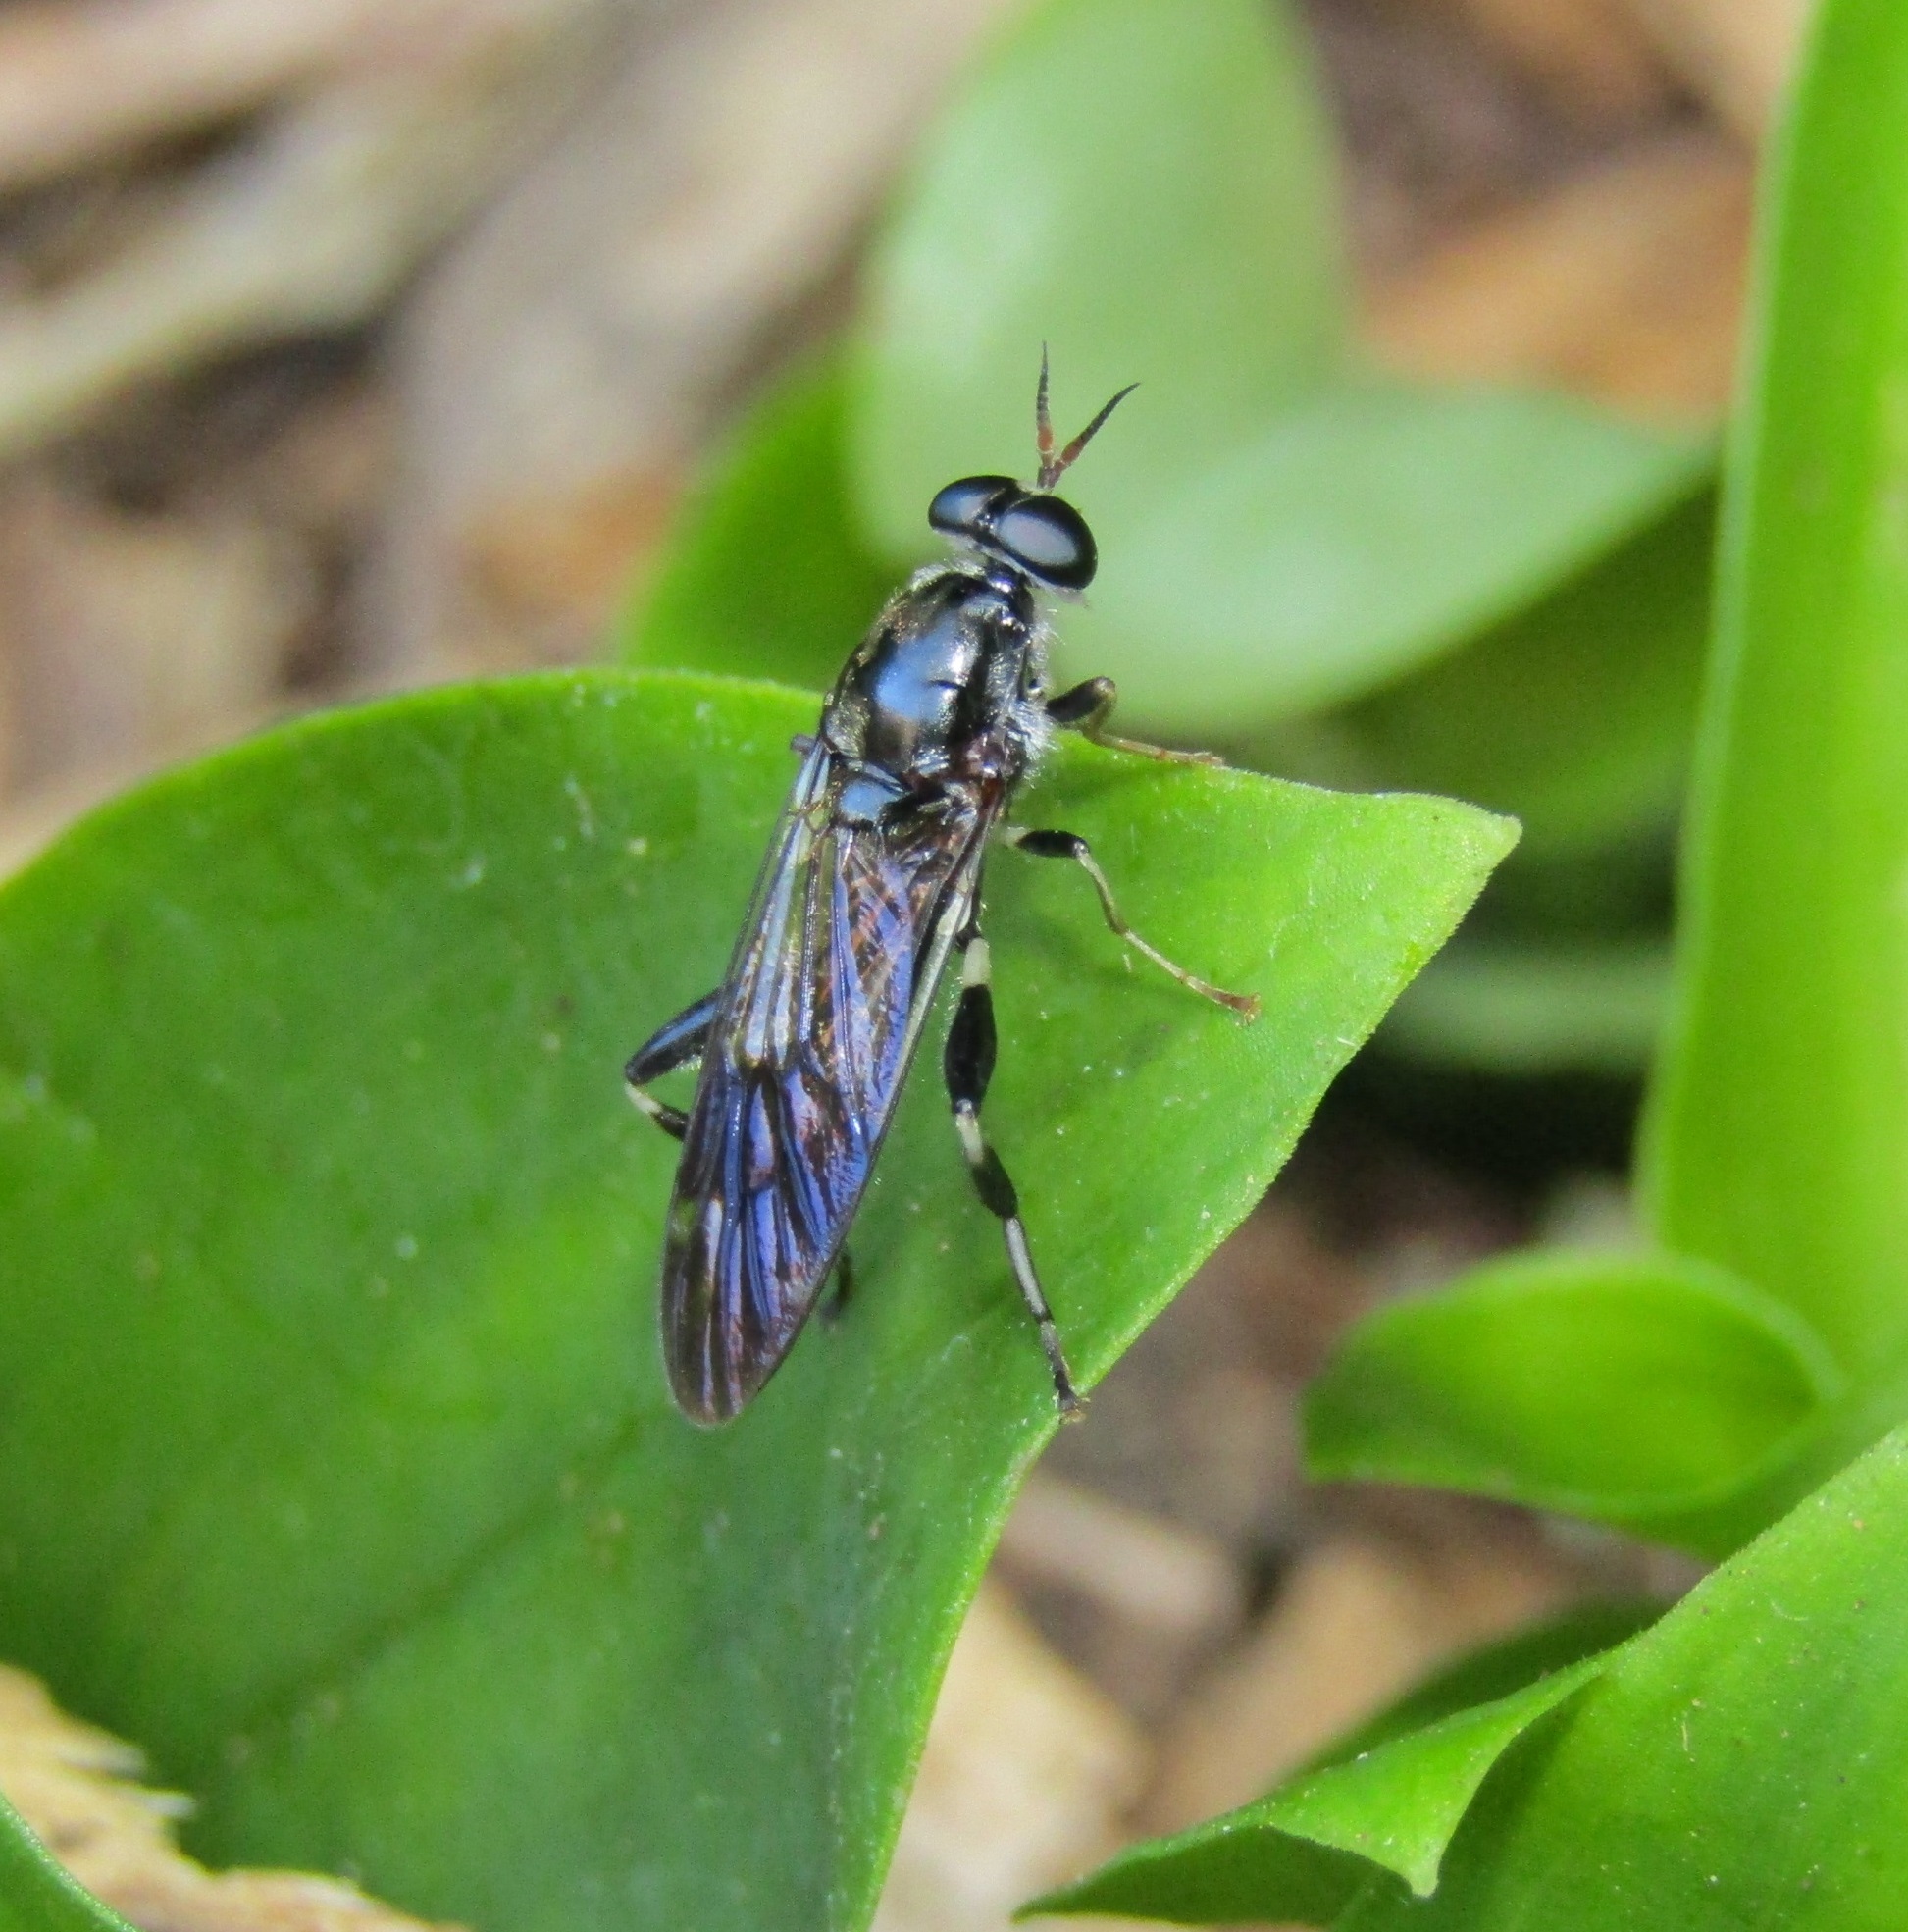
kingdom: Animalia
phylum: Arthropoda
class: Insecta
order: Diptera
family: Stratiomyidae
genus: Exaireta
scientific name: Exaireta spinigera
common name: Blue soldier fly
